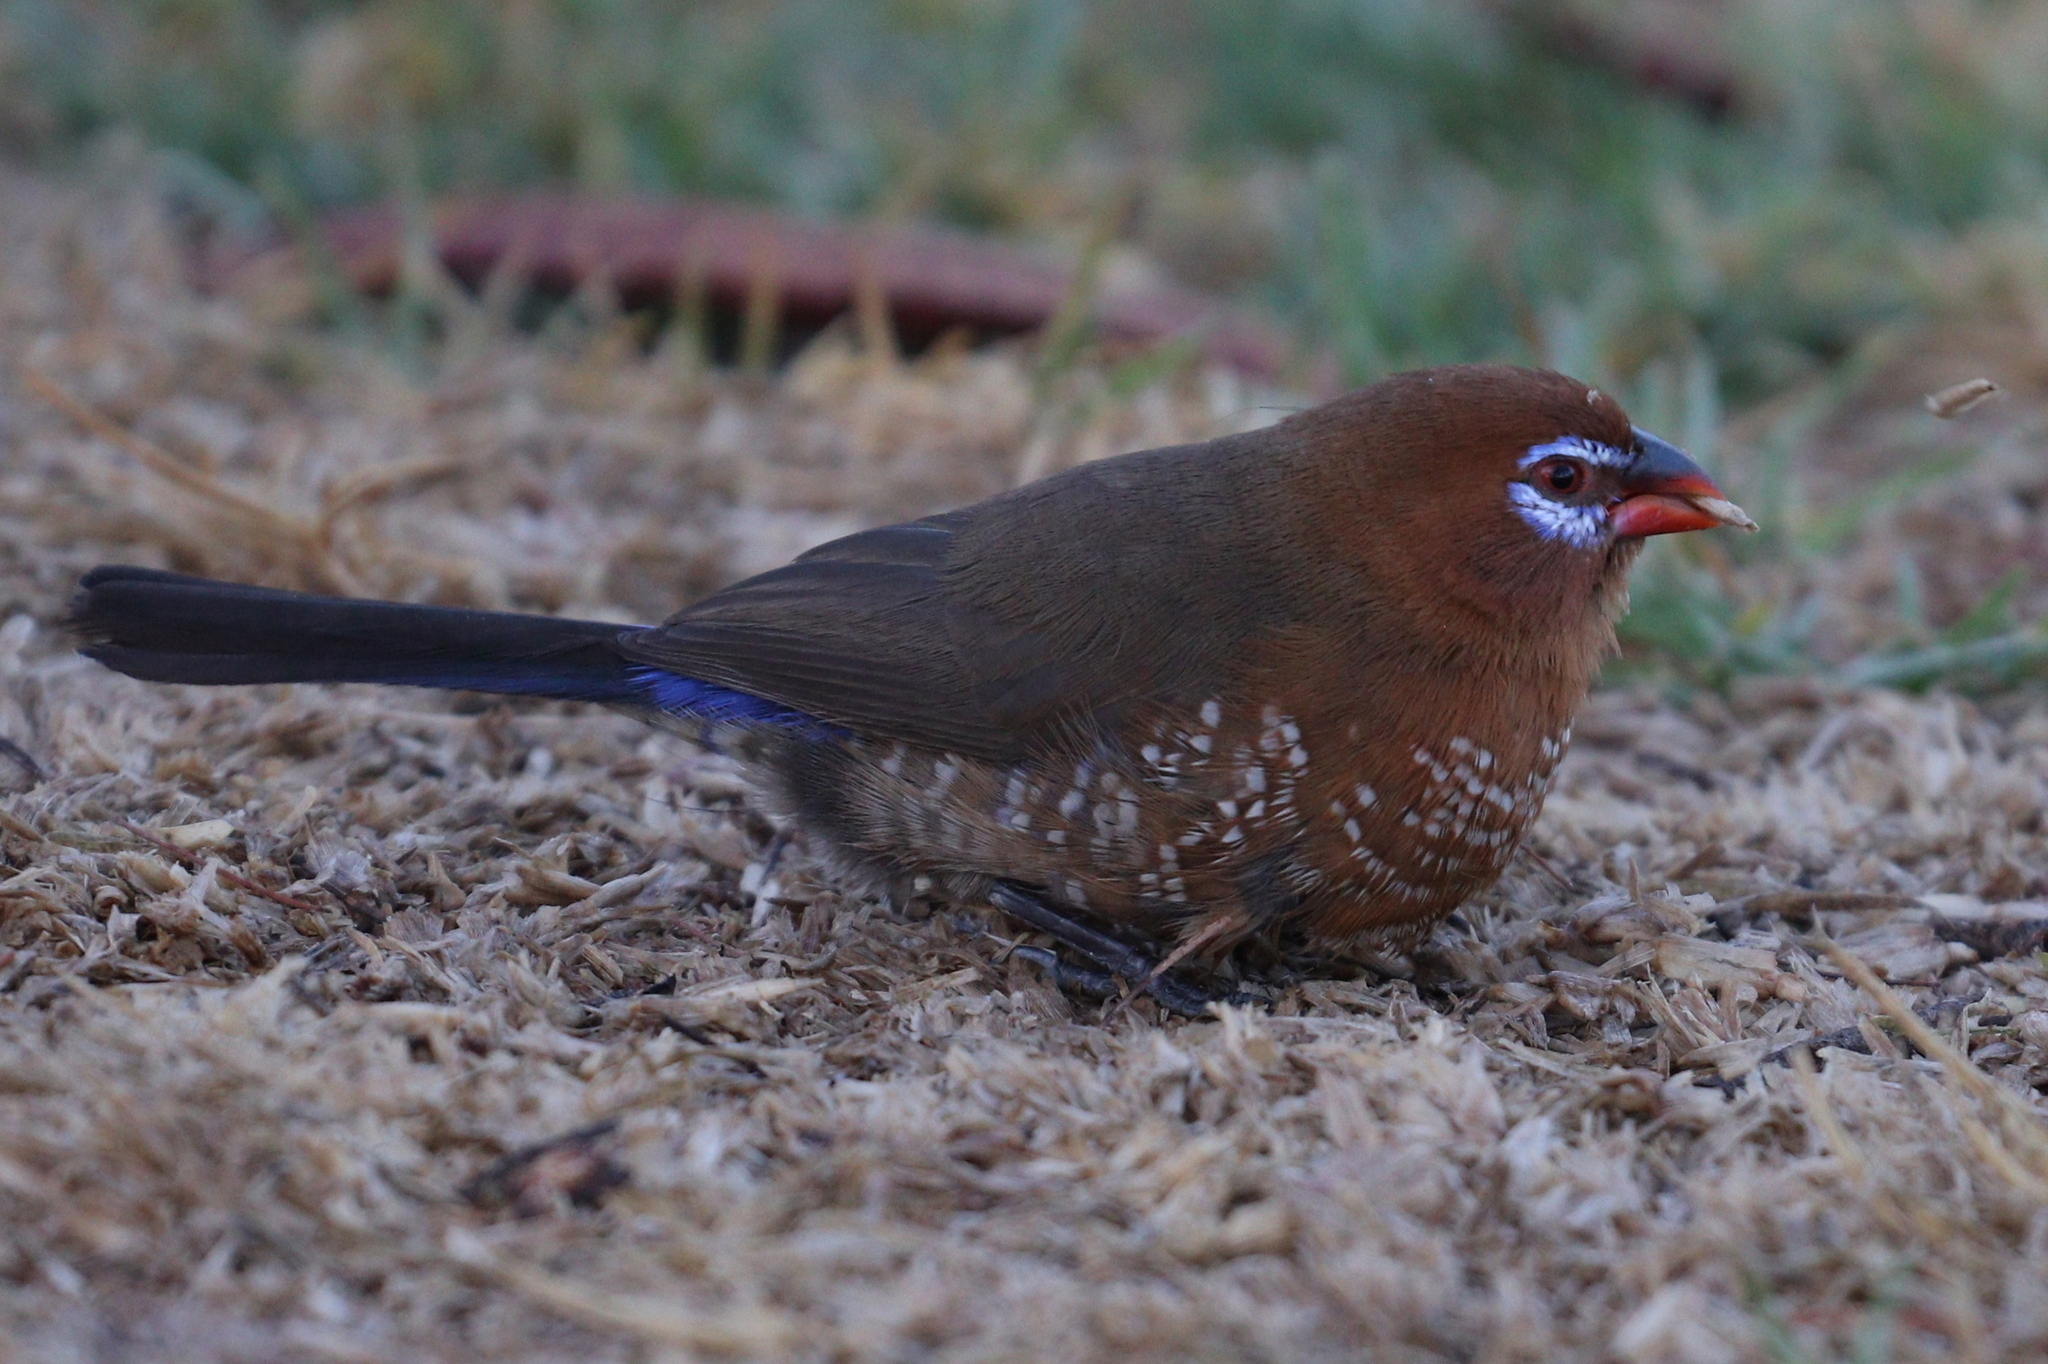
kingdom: Animalia
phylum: Chordata
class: Aves
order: Passeriformes
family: Estrildidae
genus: Uraeginthus
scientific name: Uraeginthus ianthinogaster
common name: Purple grenadier
